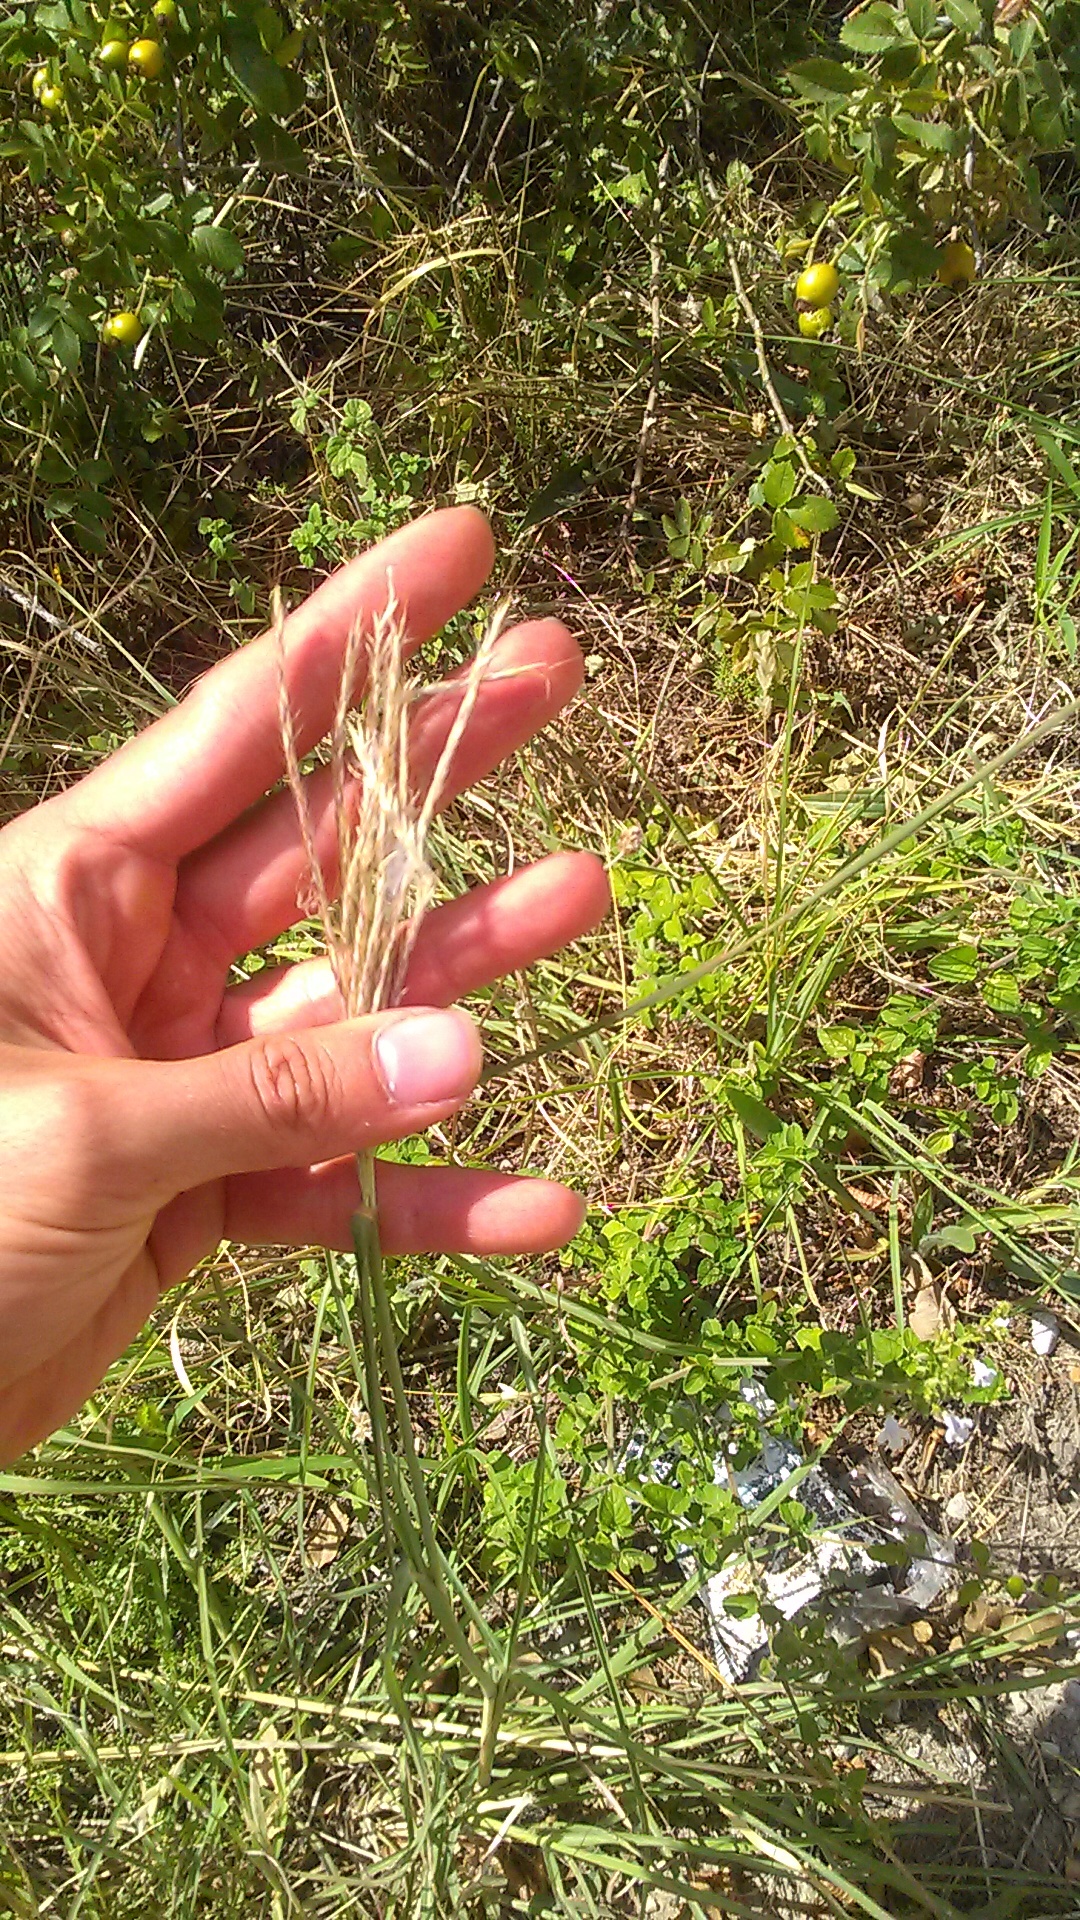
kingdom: Plantae
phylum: Tracheophyta
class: Magnoliopsida
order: Sapindales
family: Rutaceae
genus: Dictamnus
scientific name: Dictamnus albus
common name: Gasplant
